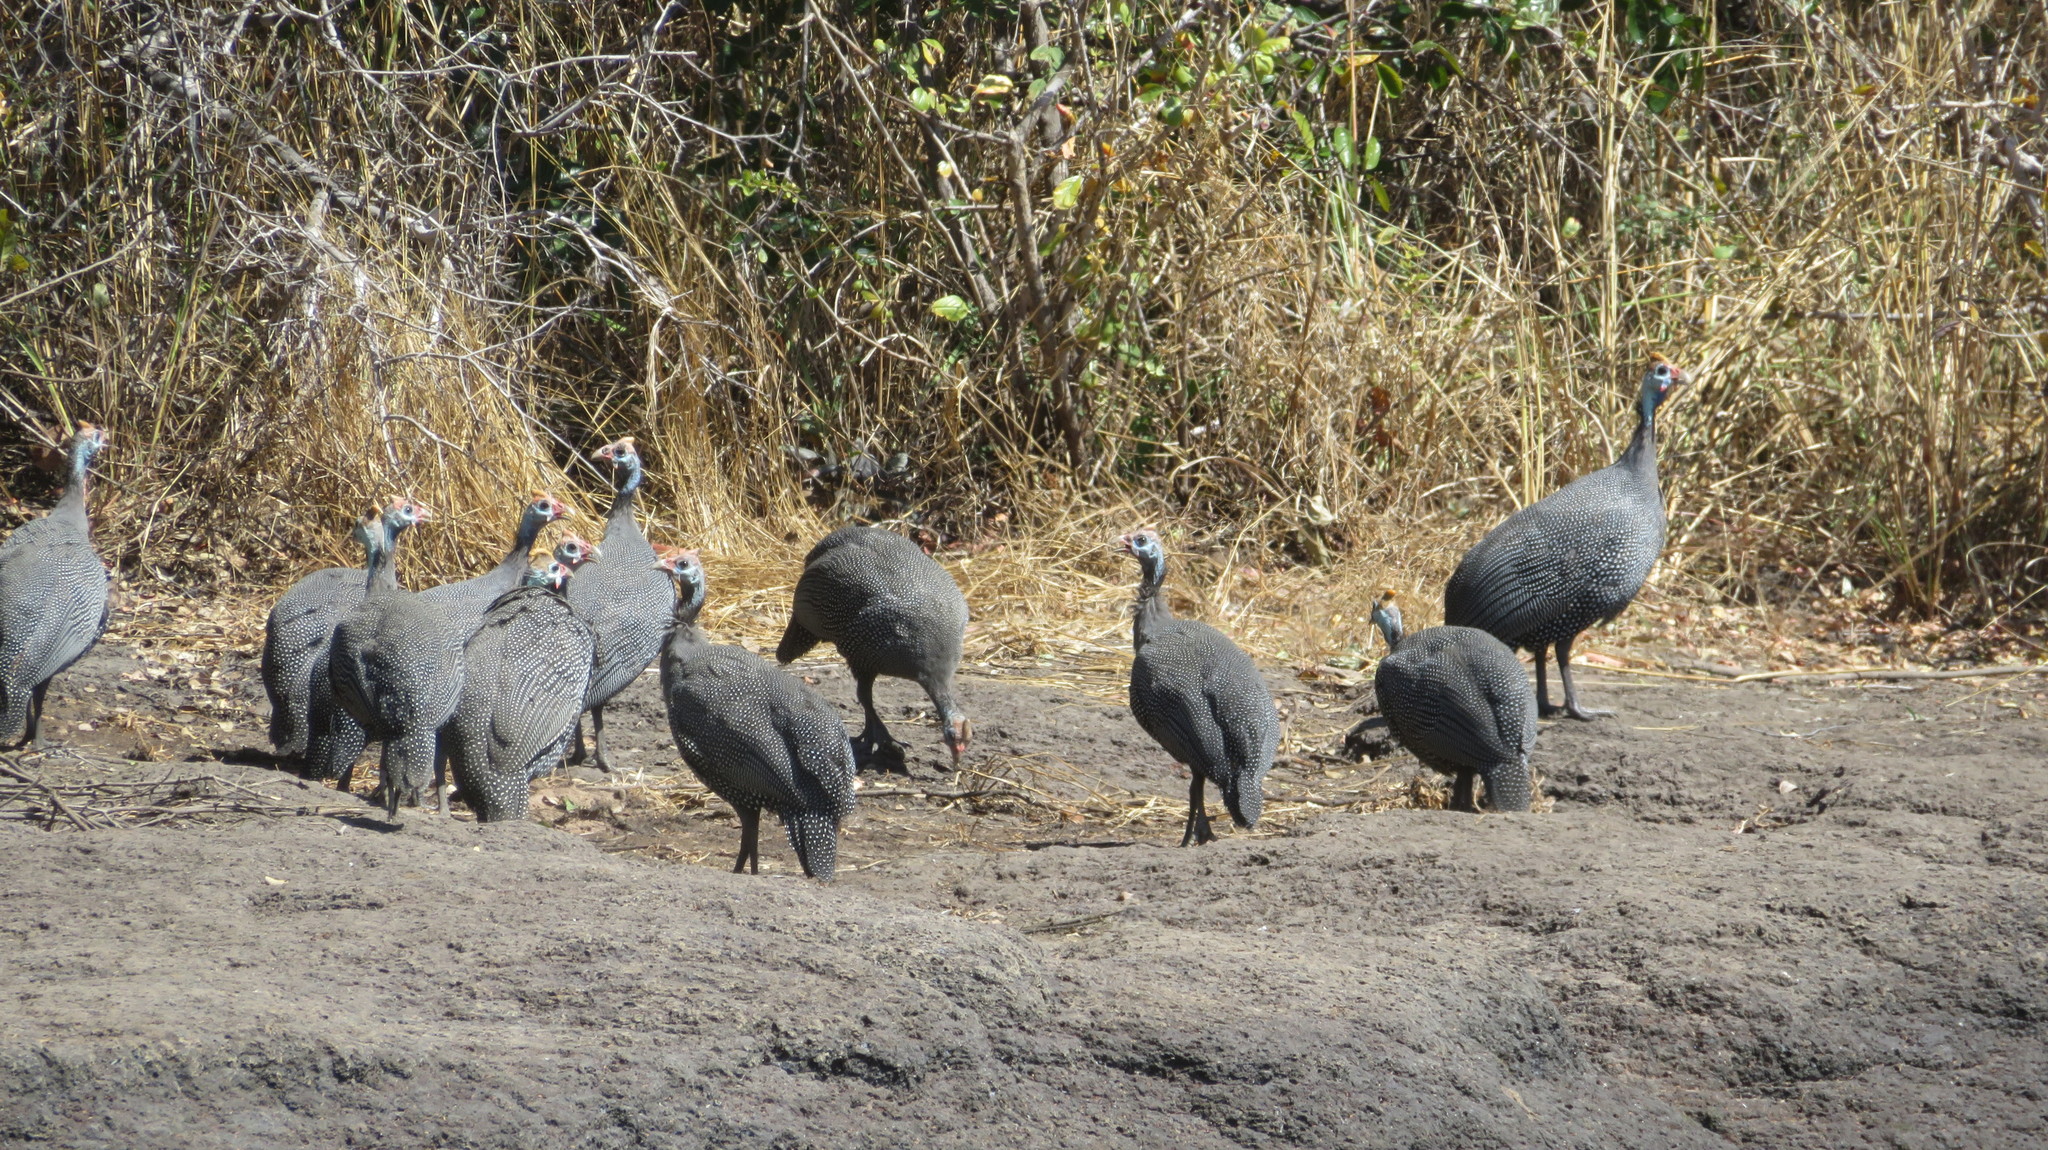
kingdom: Animalia
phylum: Chordata
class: Aves
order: Galliformes
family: Numididae
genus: Numida
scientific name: Numida meleagris
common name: Helmeted guineafowl
